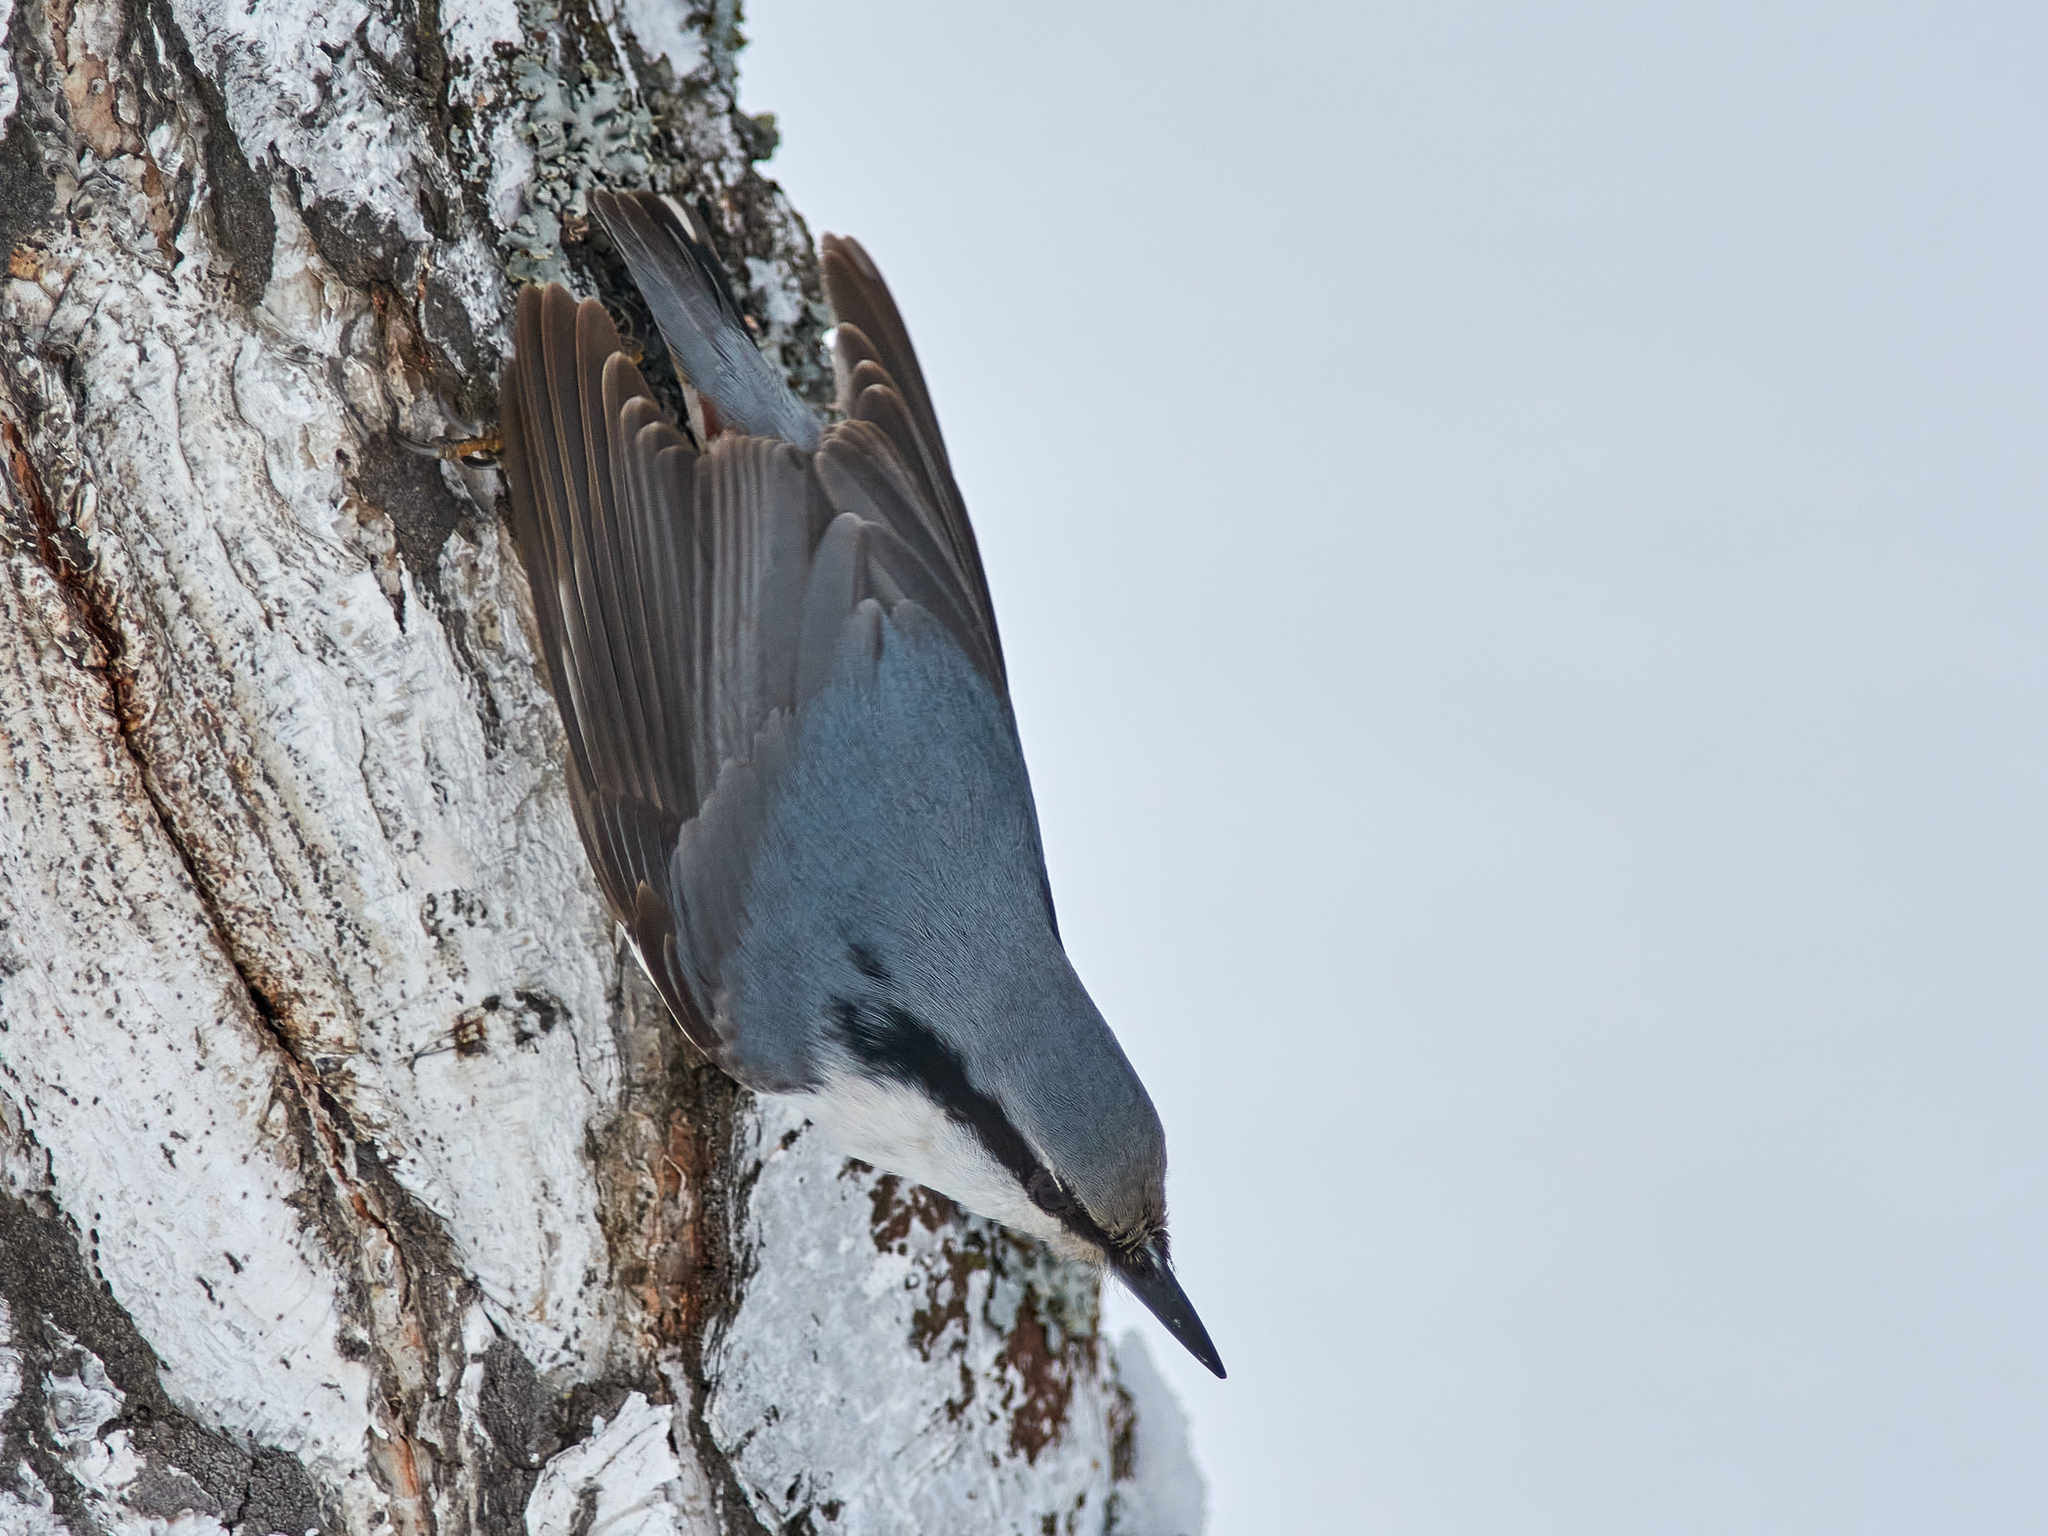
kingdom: Animalia
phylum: Chordata
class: Aves
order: Passeriformes
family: Sittidae
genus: Sitta
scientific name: Sitta europaea
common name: Eurasian nuthatch
